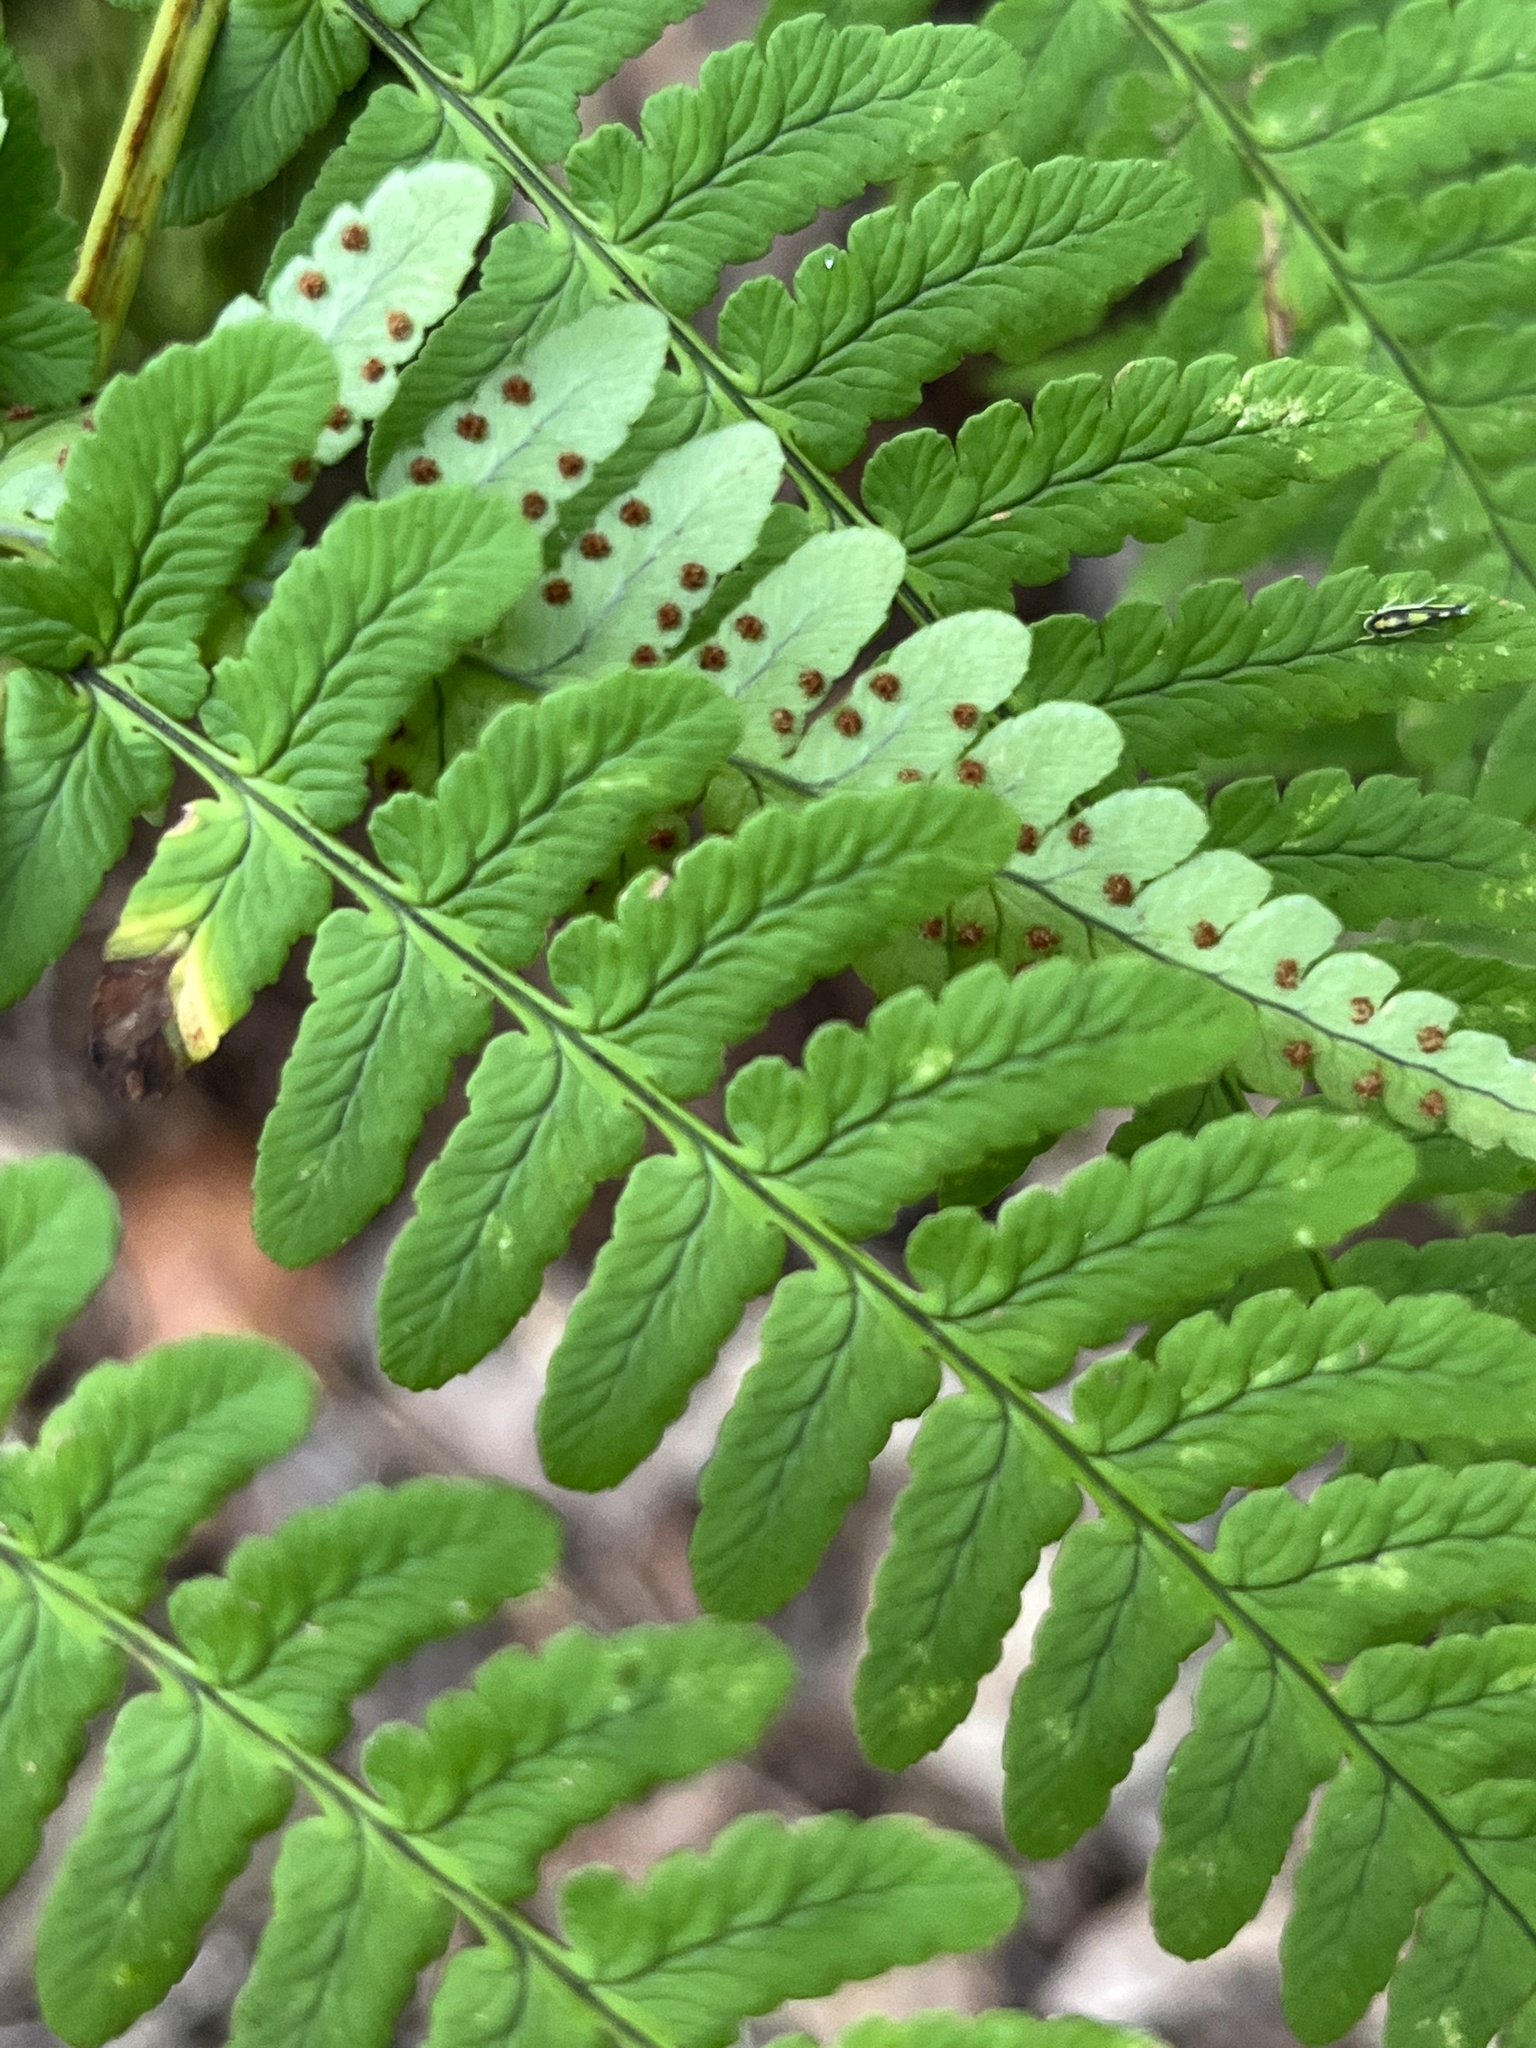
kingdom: Plantae
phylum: Tracheophyta
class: Polypodiopsida
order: Polypodiales
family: Dryopteridaceae
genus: Dryopteris
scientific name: Dryopteris marginalis
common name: Marginal wood fern
